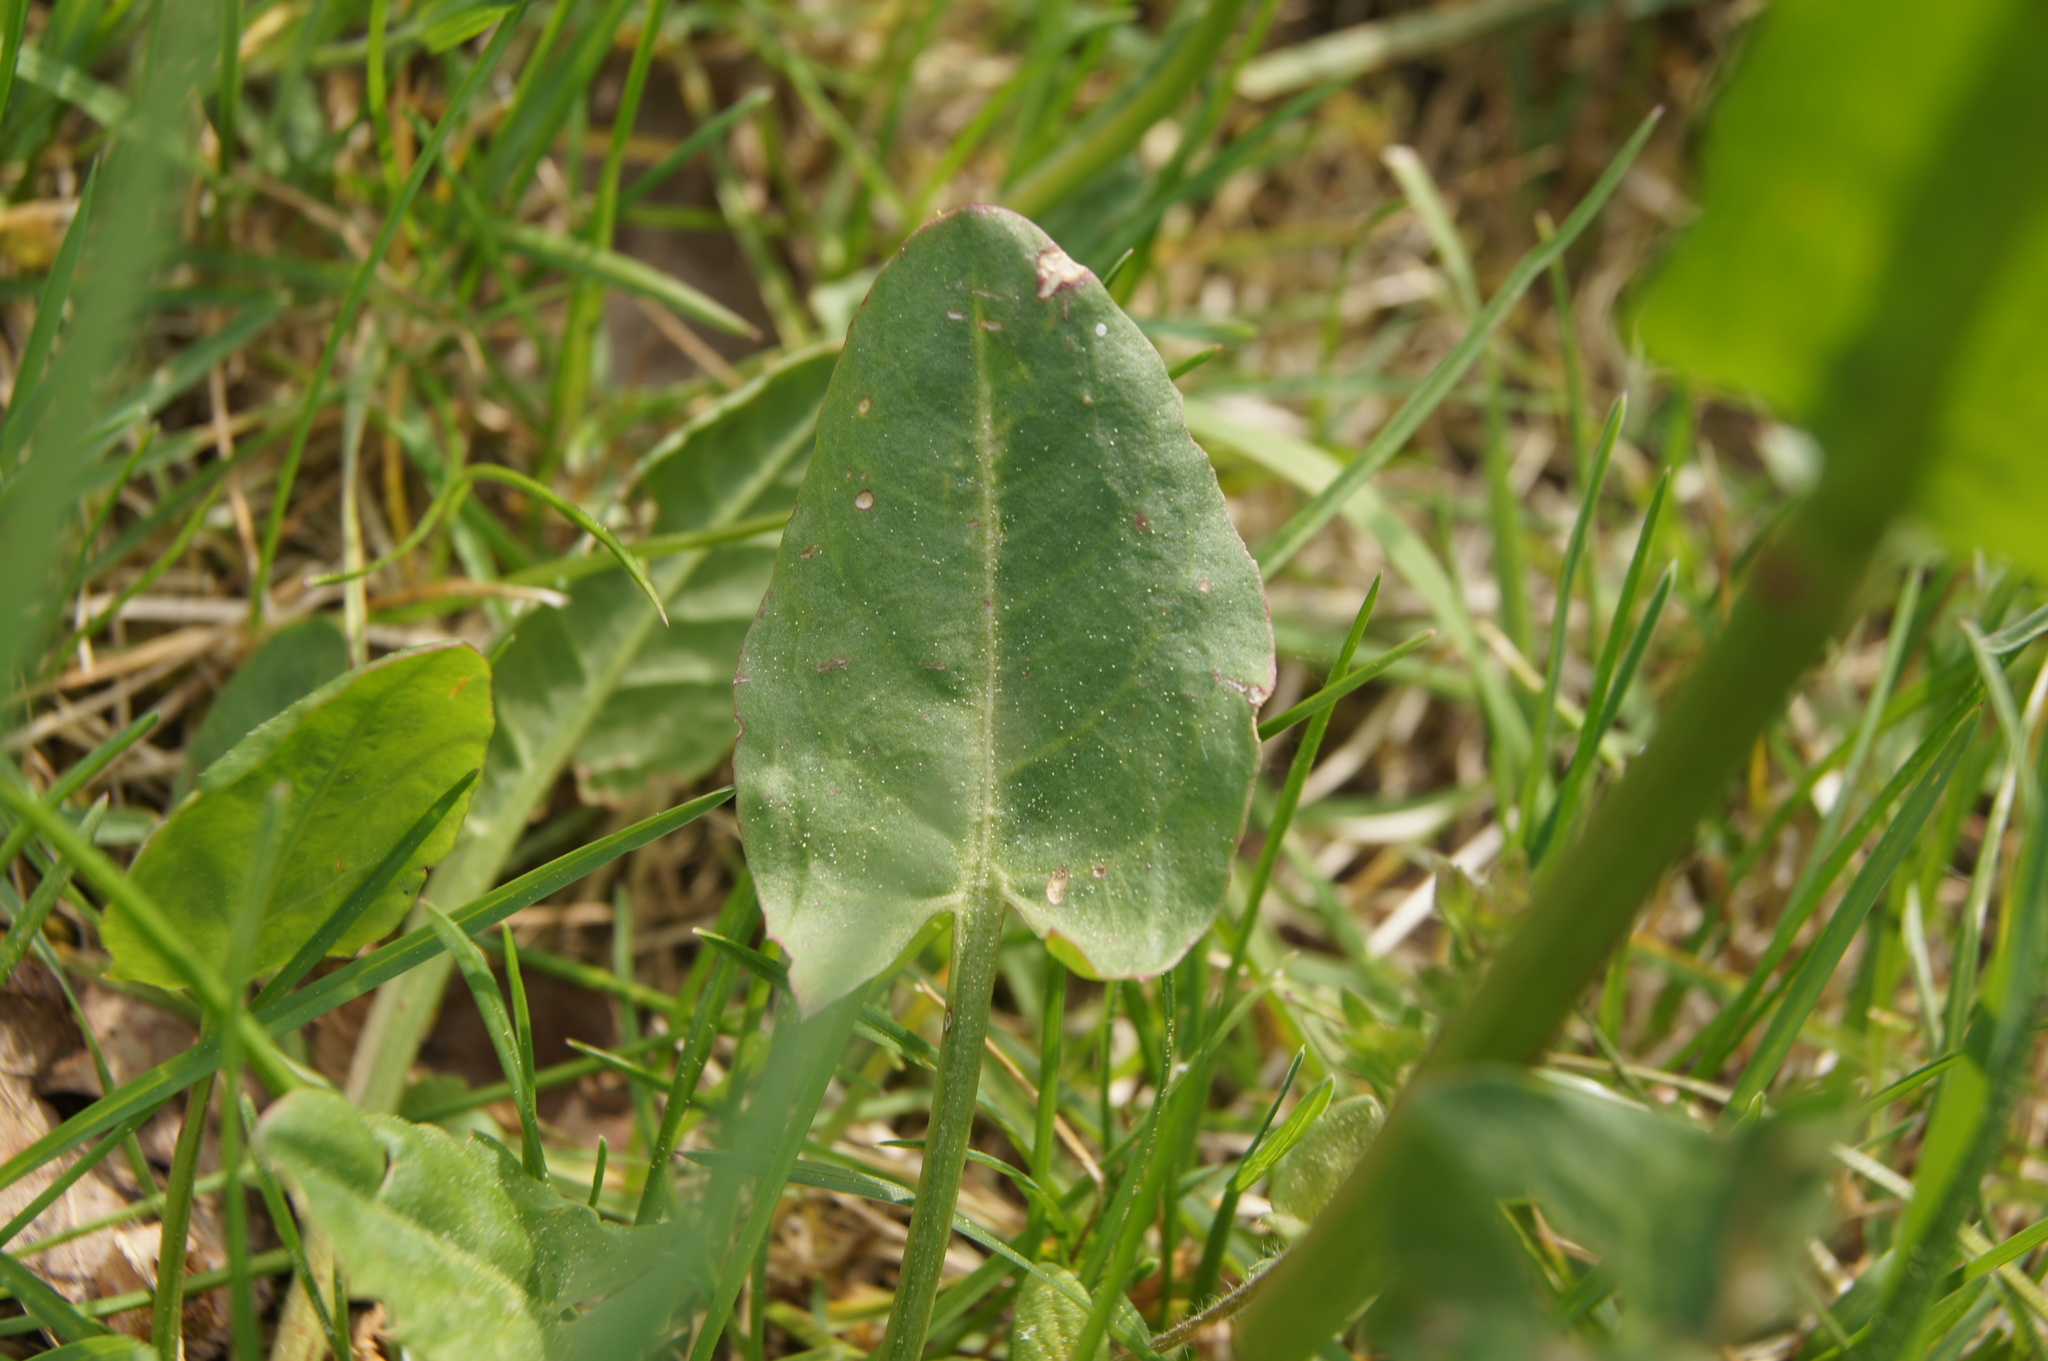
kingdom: Plantae
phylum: Tracheophyta
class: Magnoliopsida
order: Caryophyllales
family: Polygonaceae
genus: Rumex
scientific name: Rumex acetosa
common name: Garden sorrel
